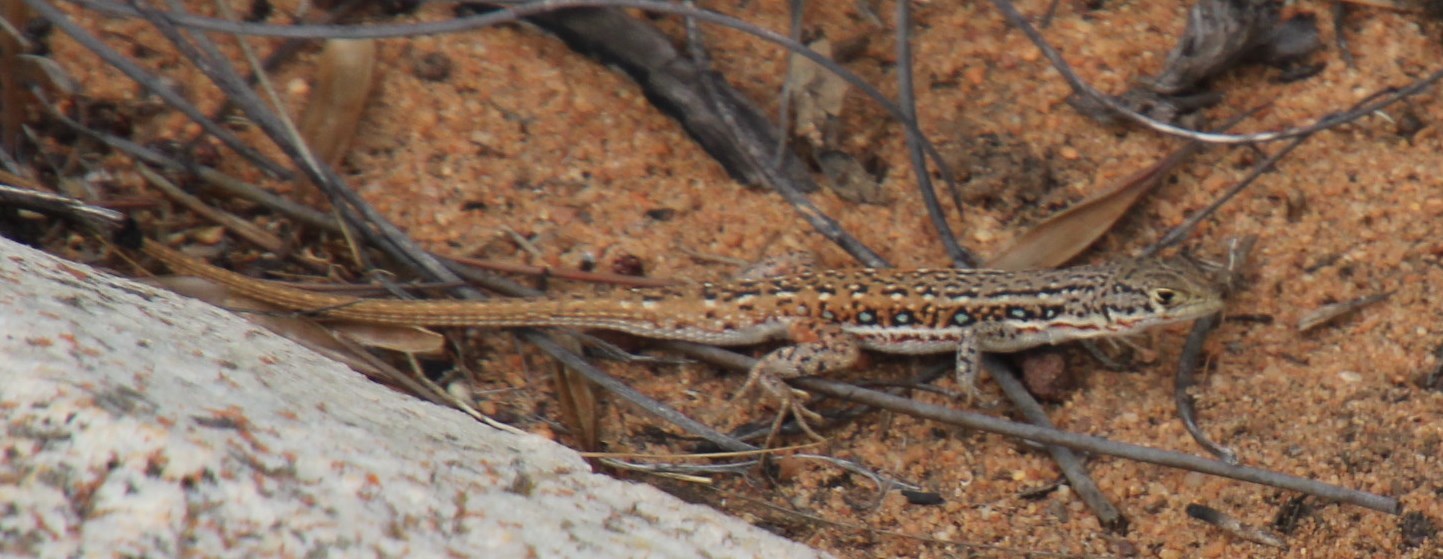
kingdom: Animalia
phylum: Chordata
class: Squamata
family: Lacertidae
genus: Pedioplanis
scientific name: Pedioplanis lineoocellata
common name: Spotted sand lizard
